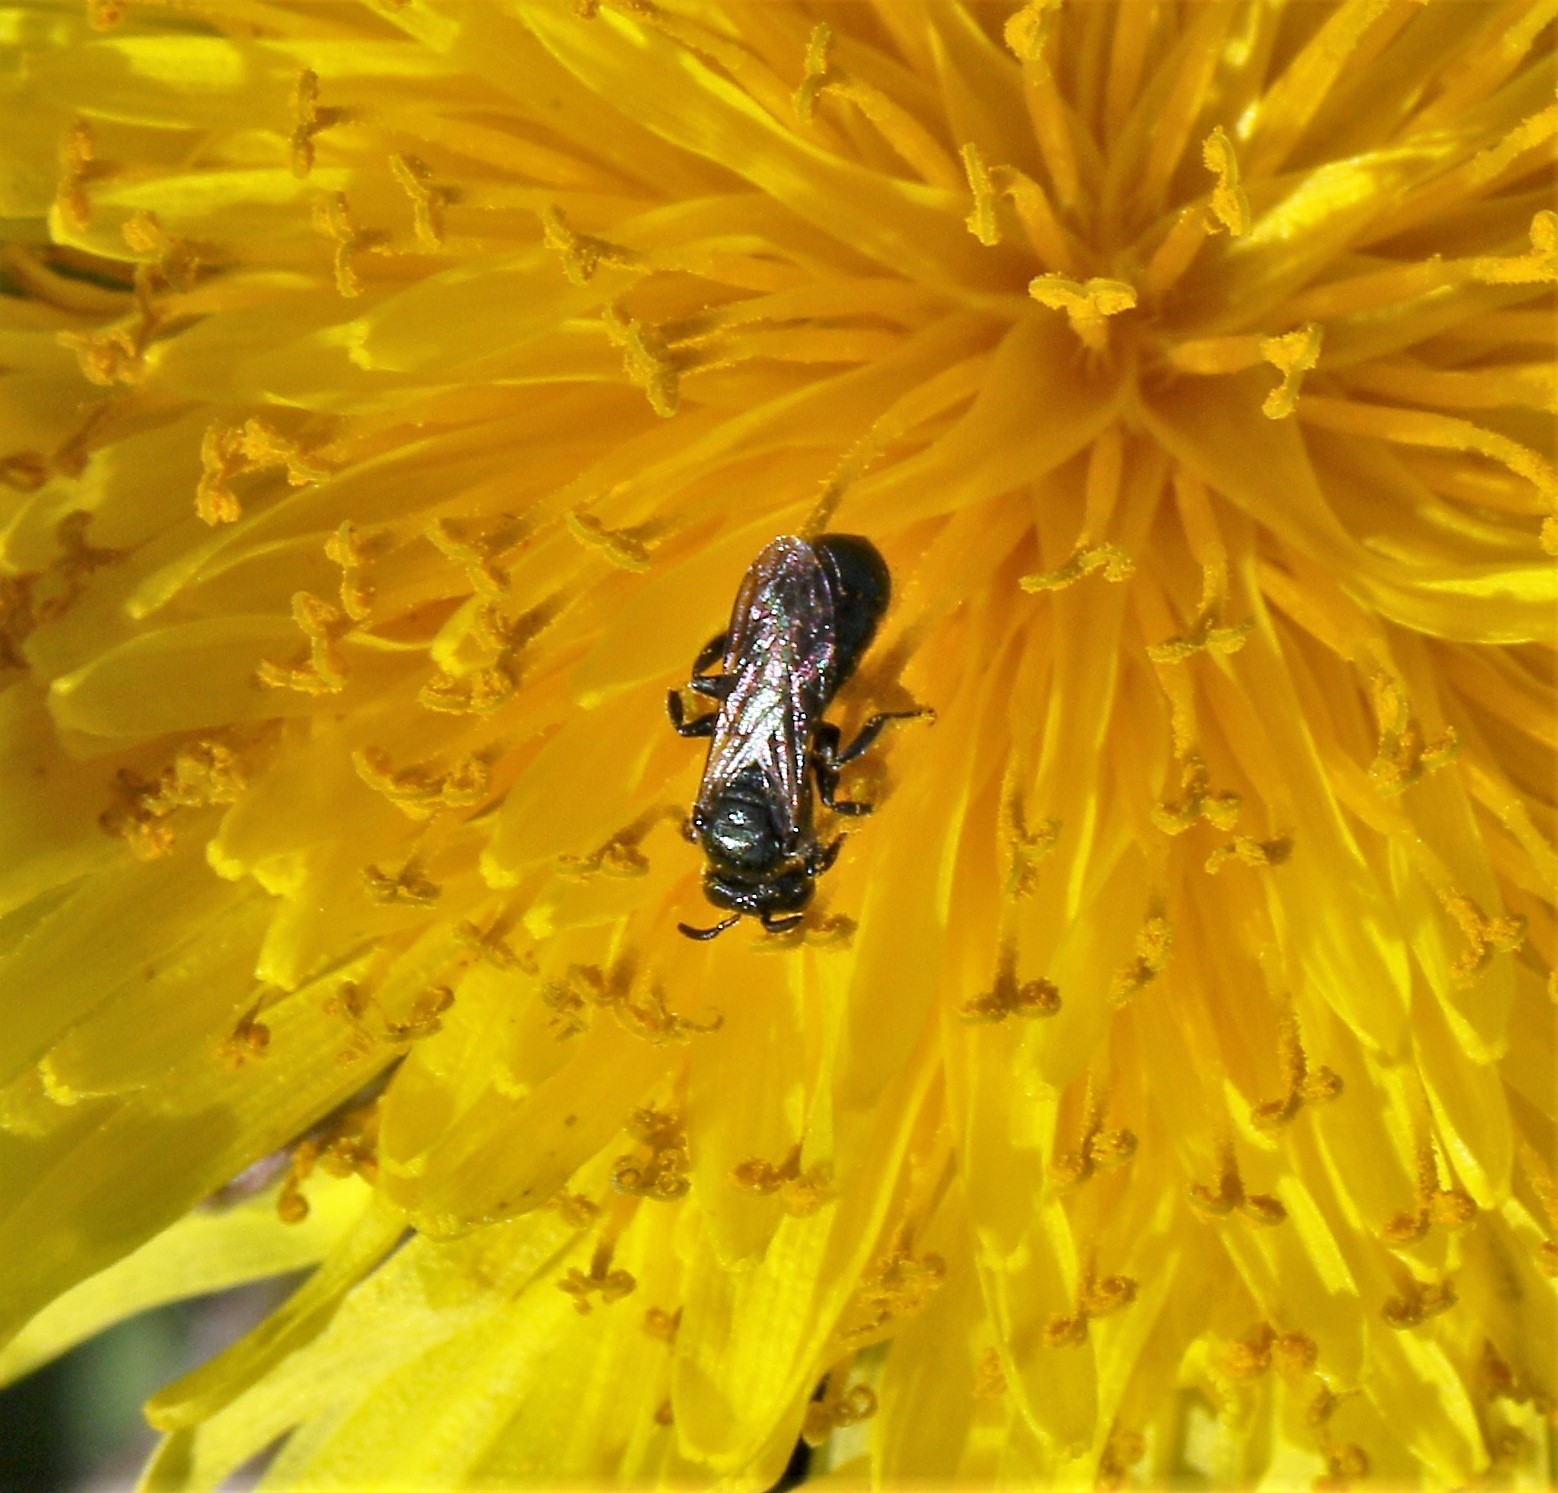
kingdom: Animalia
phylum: Arthropoda
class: Insecta
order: Hymenoptera
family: Apidae
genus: Zadontomerus
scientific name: Zadontomerus
